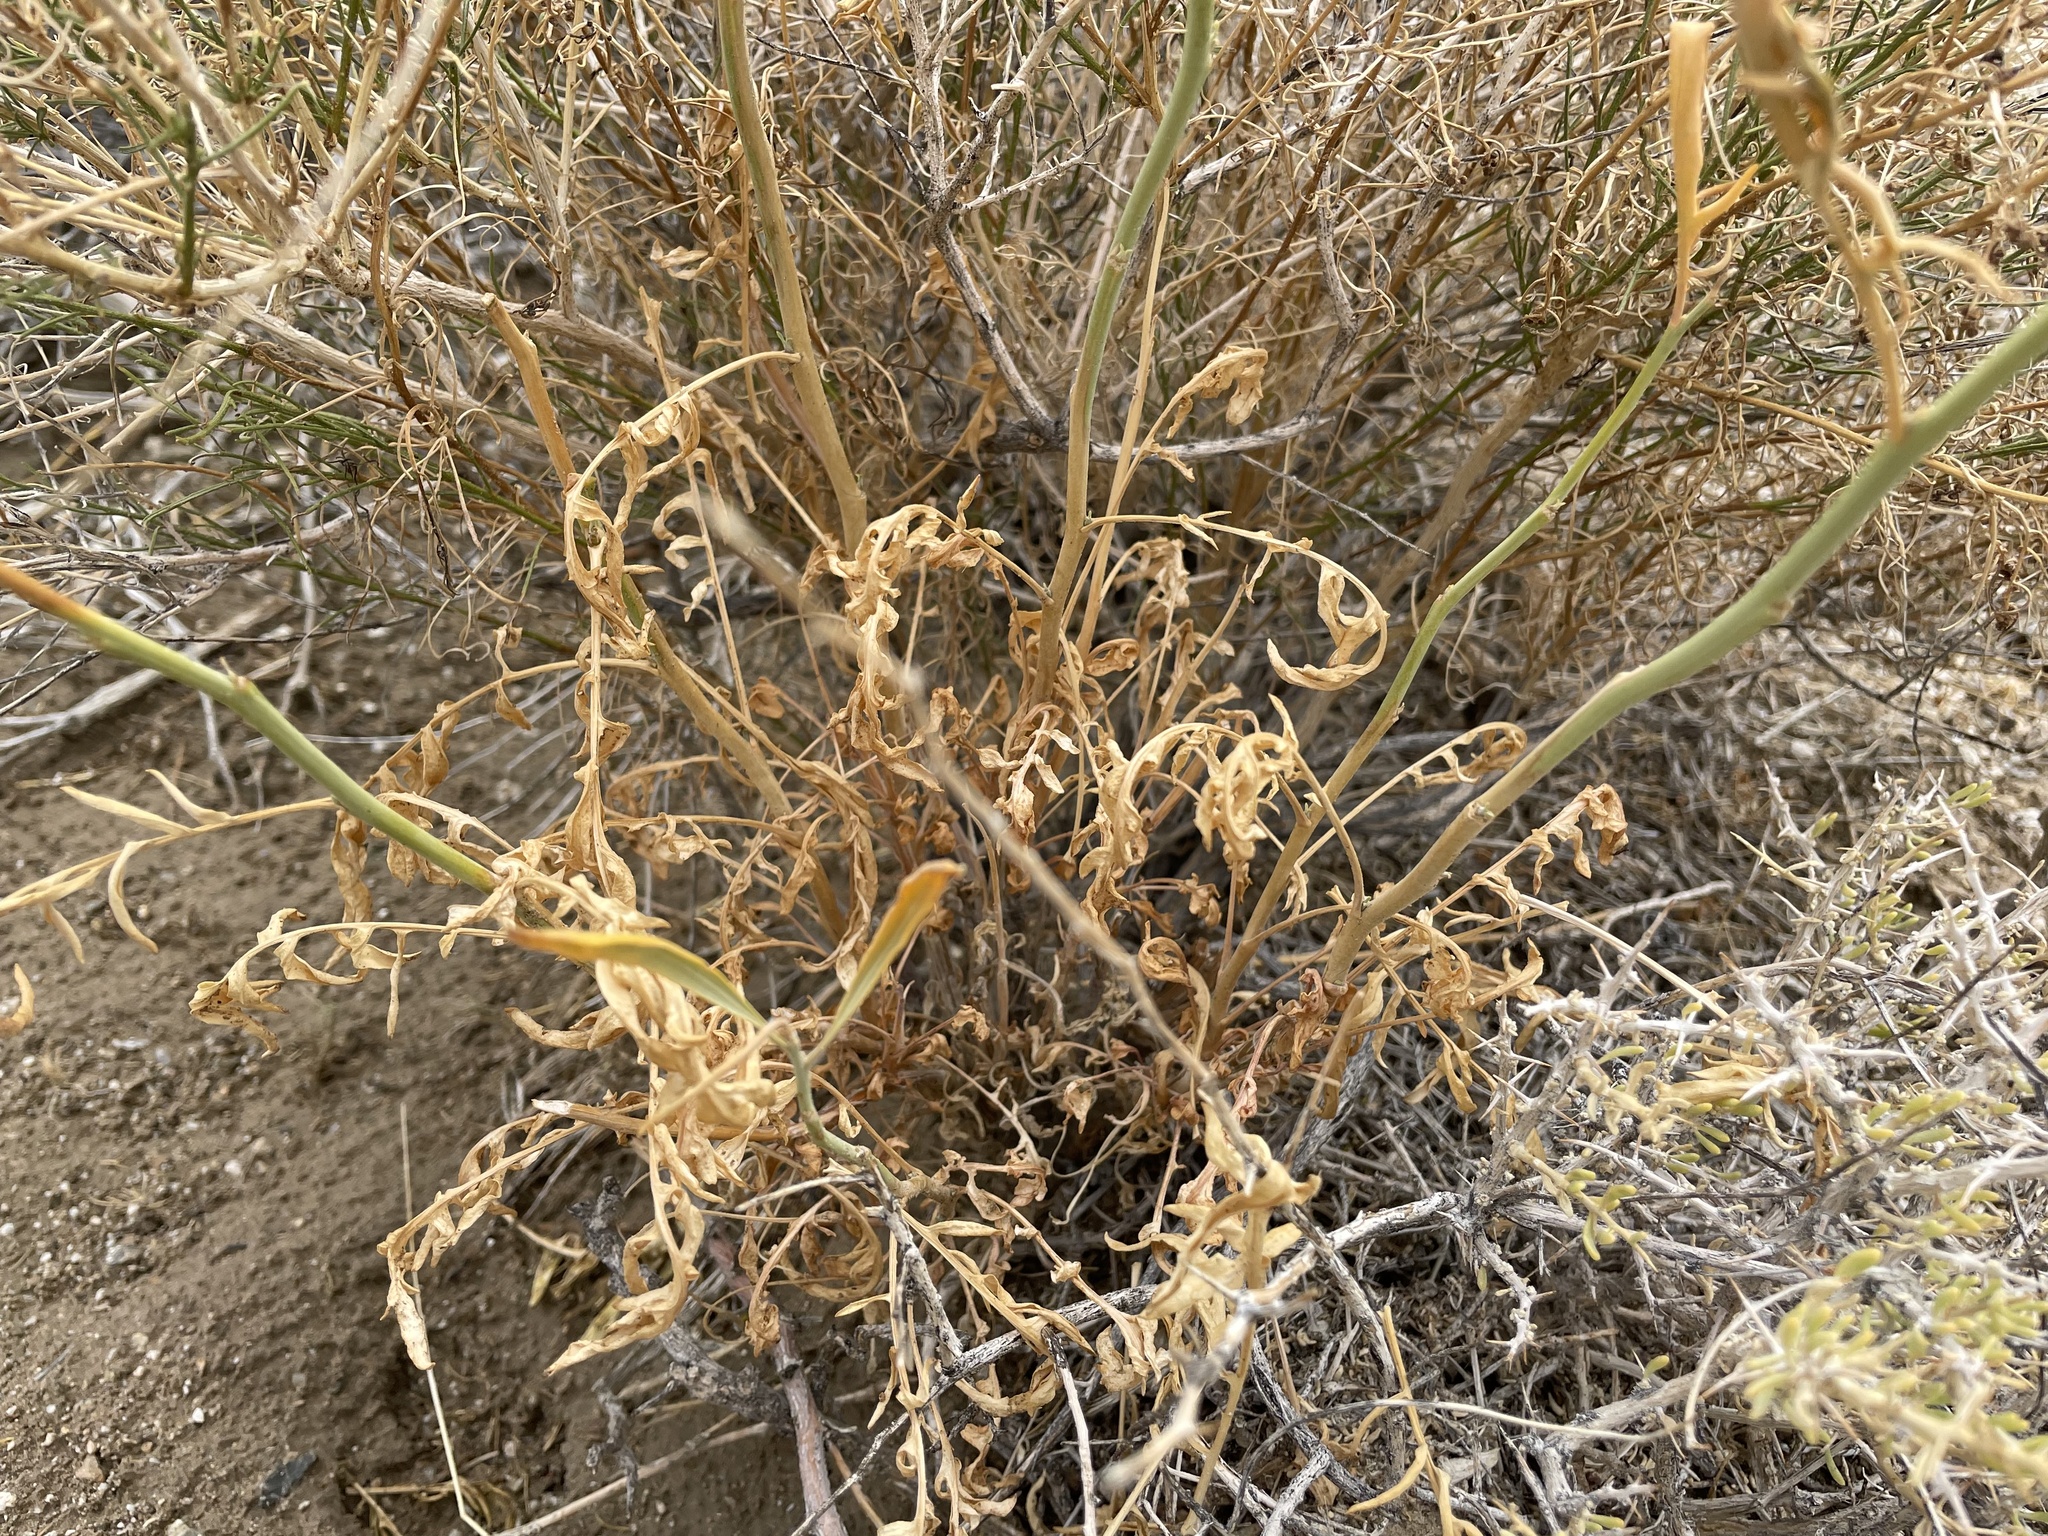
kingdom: Plantae
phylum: Tracheophyta
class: Magnoliopsida
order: Brassicales
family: Brassicaceae
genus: Stanleya
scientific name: Stanleya pinnata
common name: Prince's-plume
